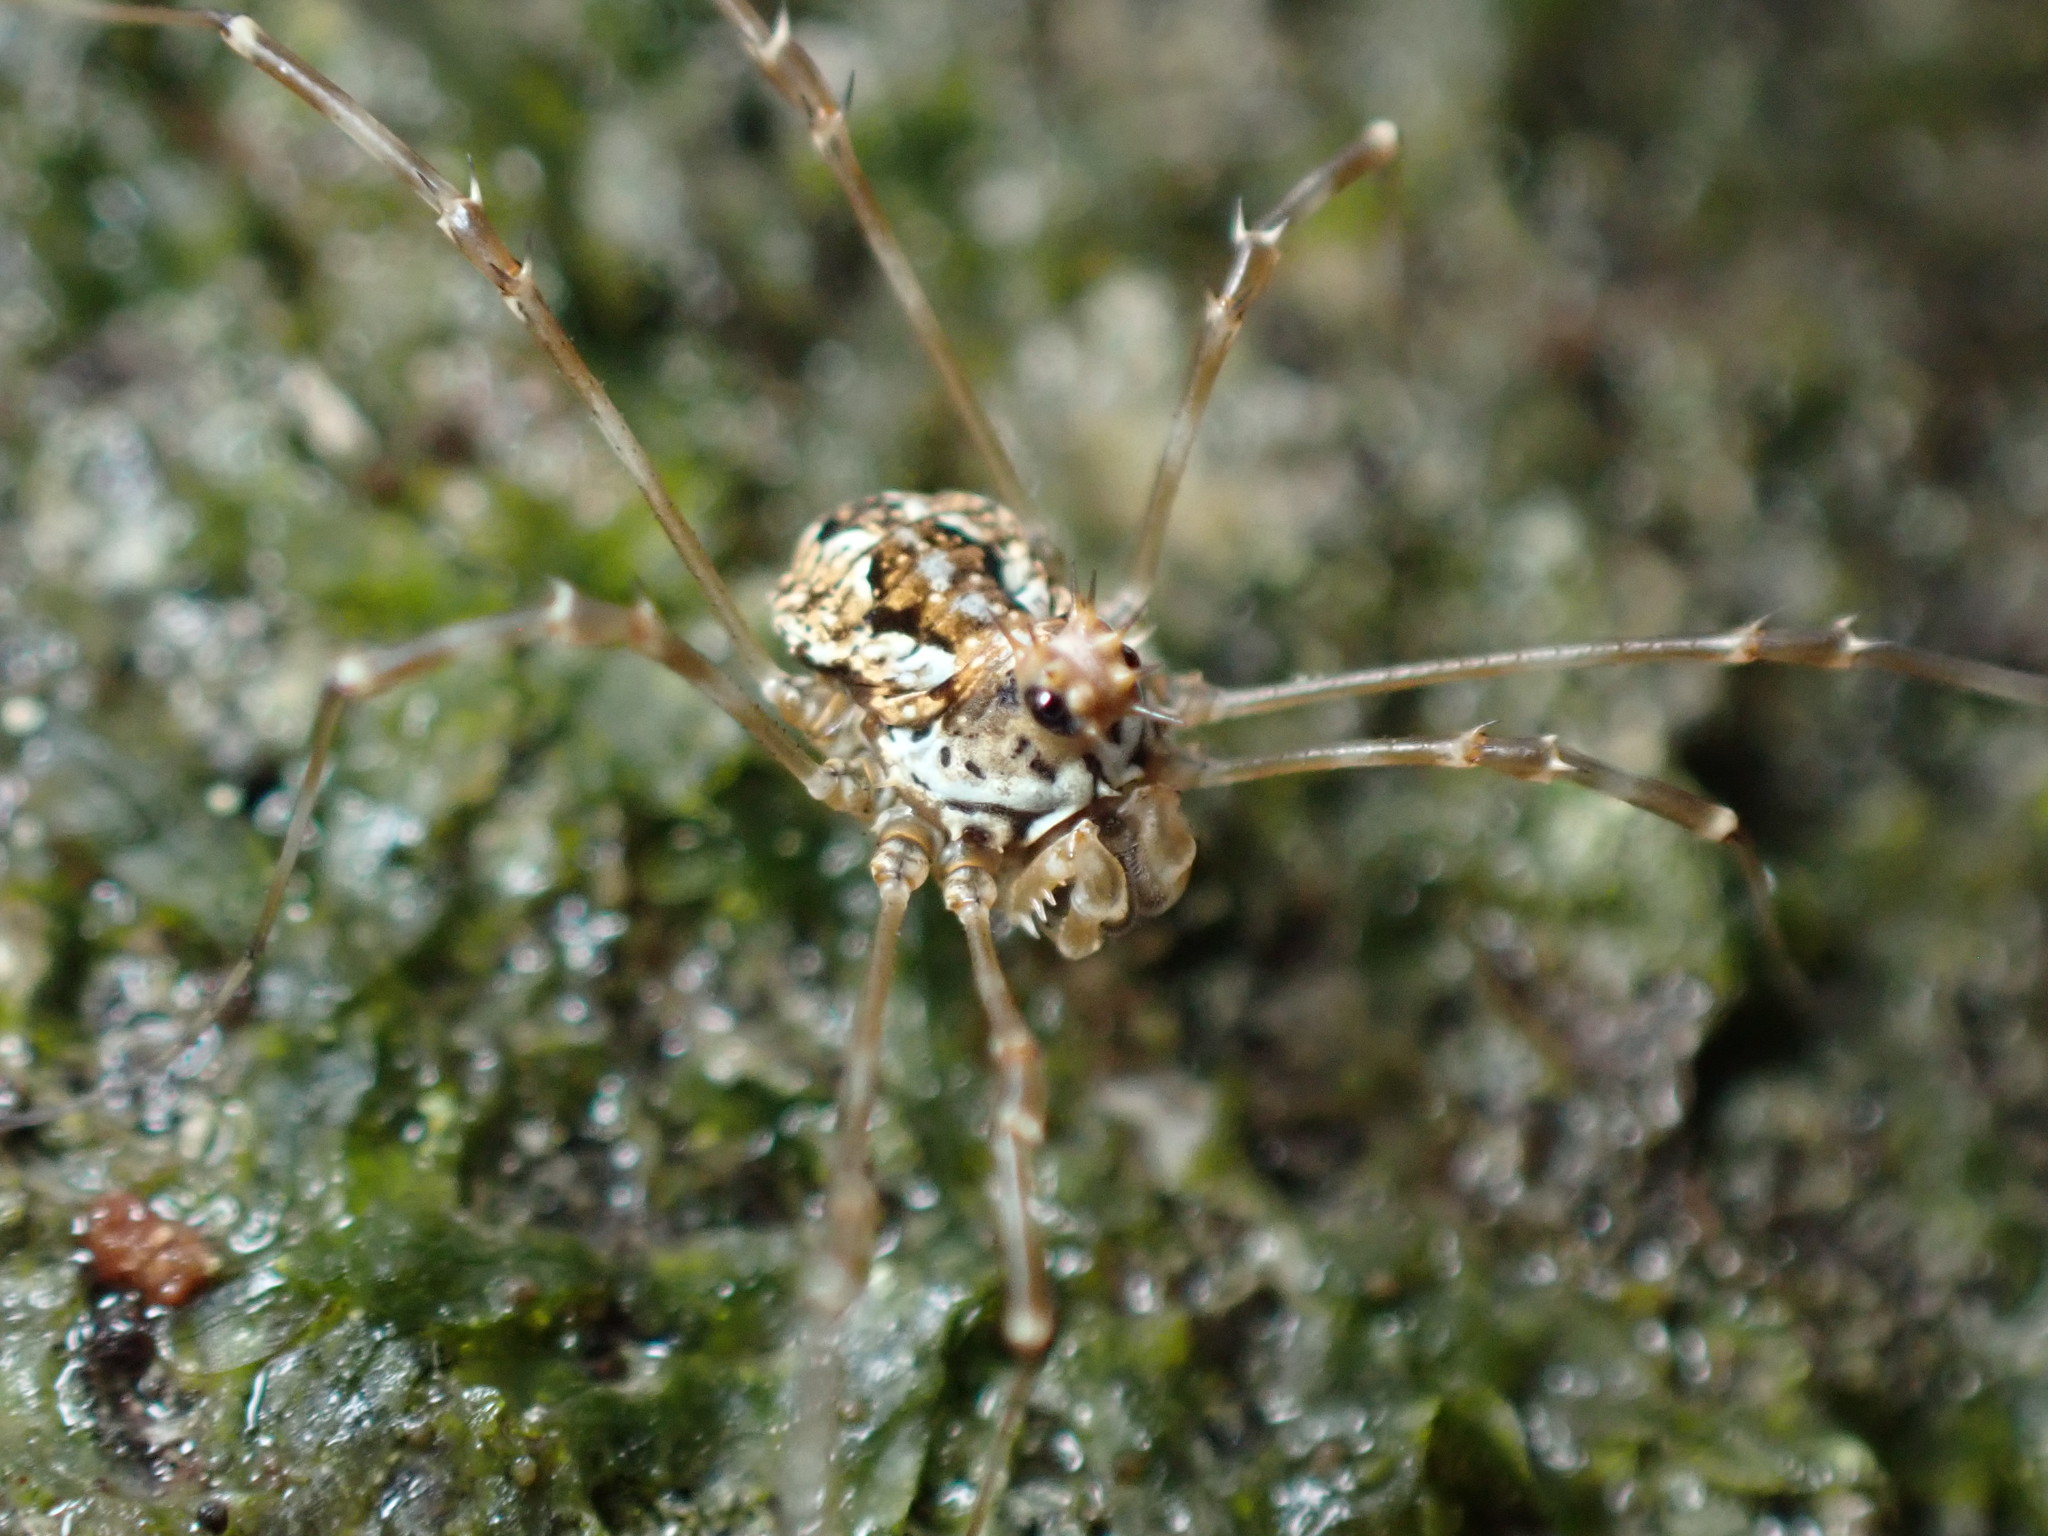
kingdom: Animalia
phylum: Arthropoda
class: Arachnida
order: Opiliones
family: Phalangiidae
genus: Megabunus
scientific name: Megabunus diadema
